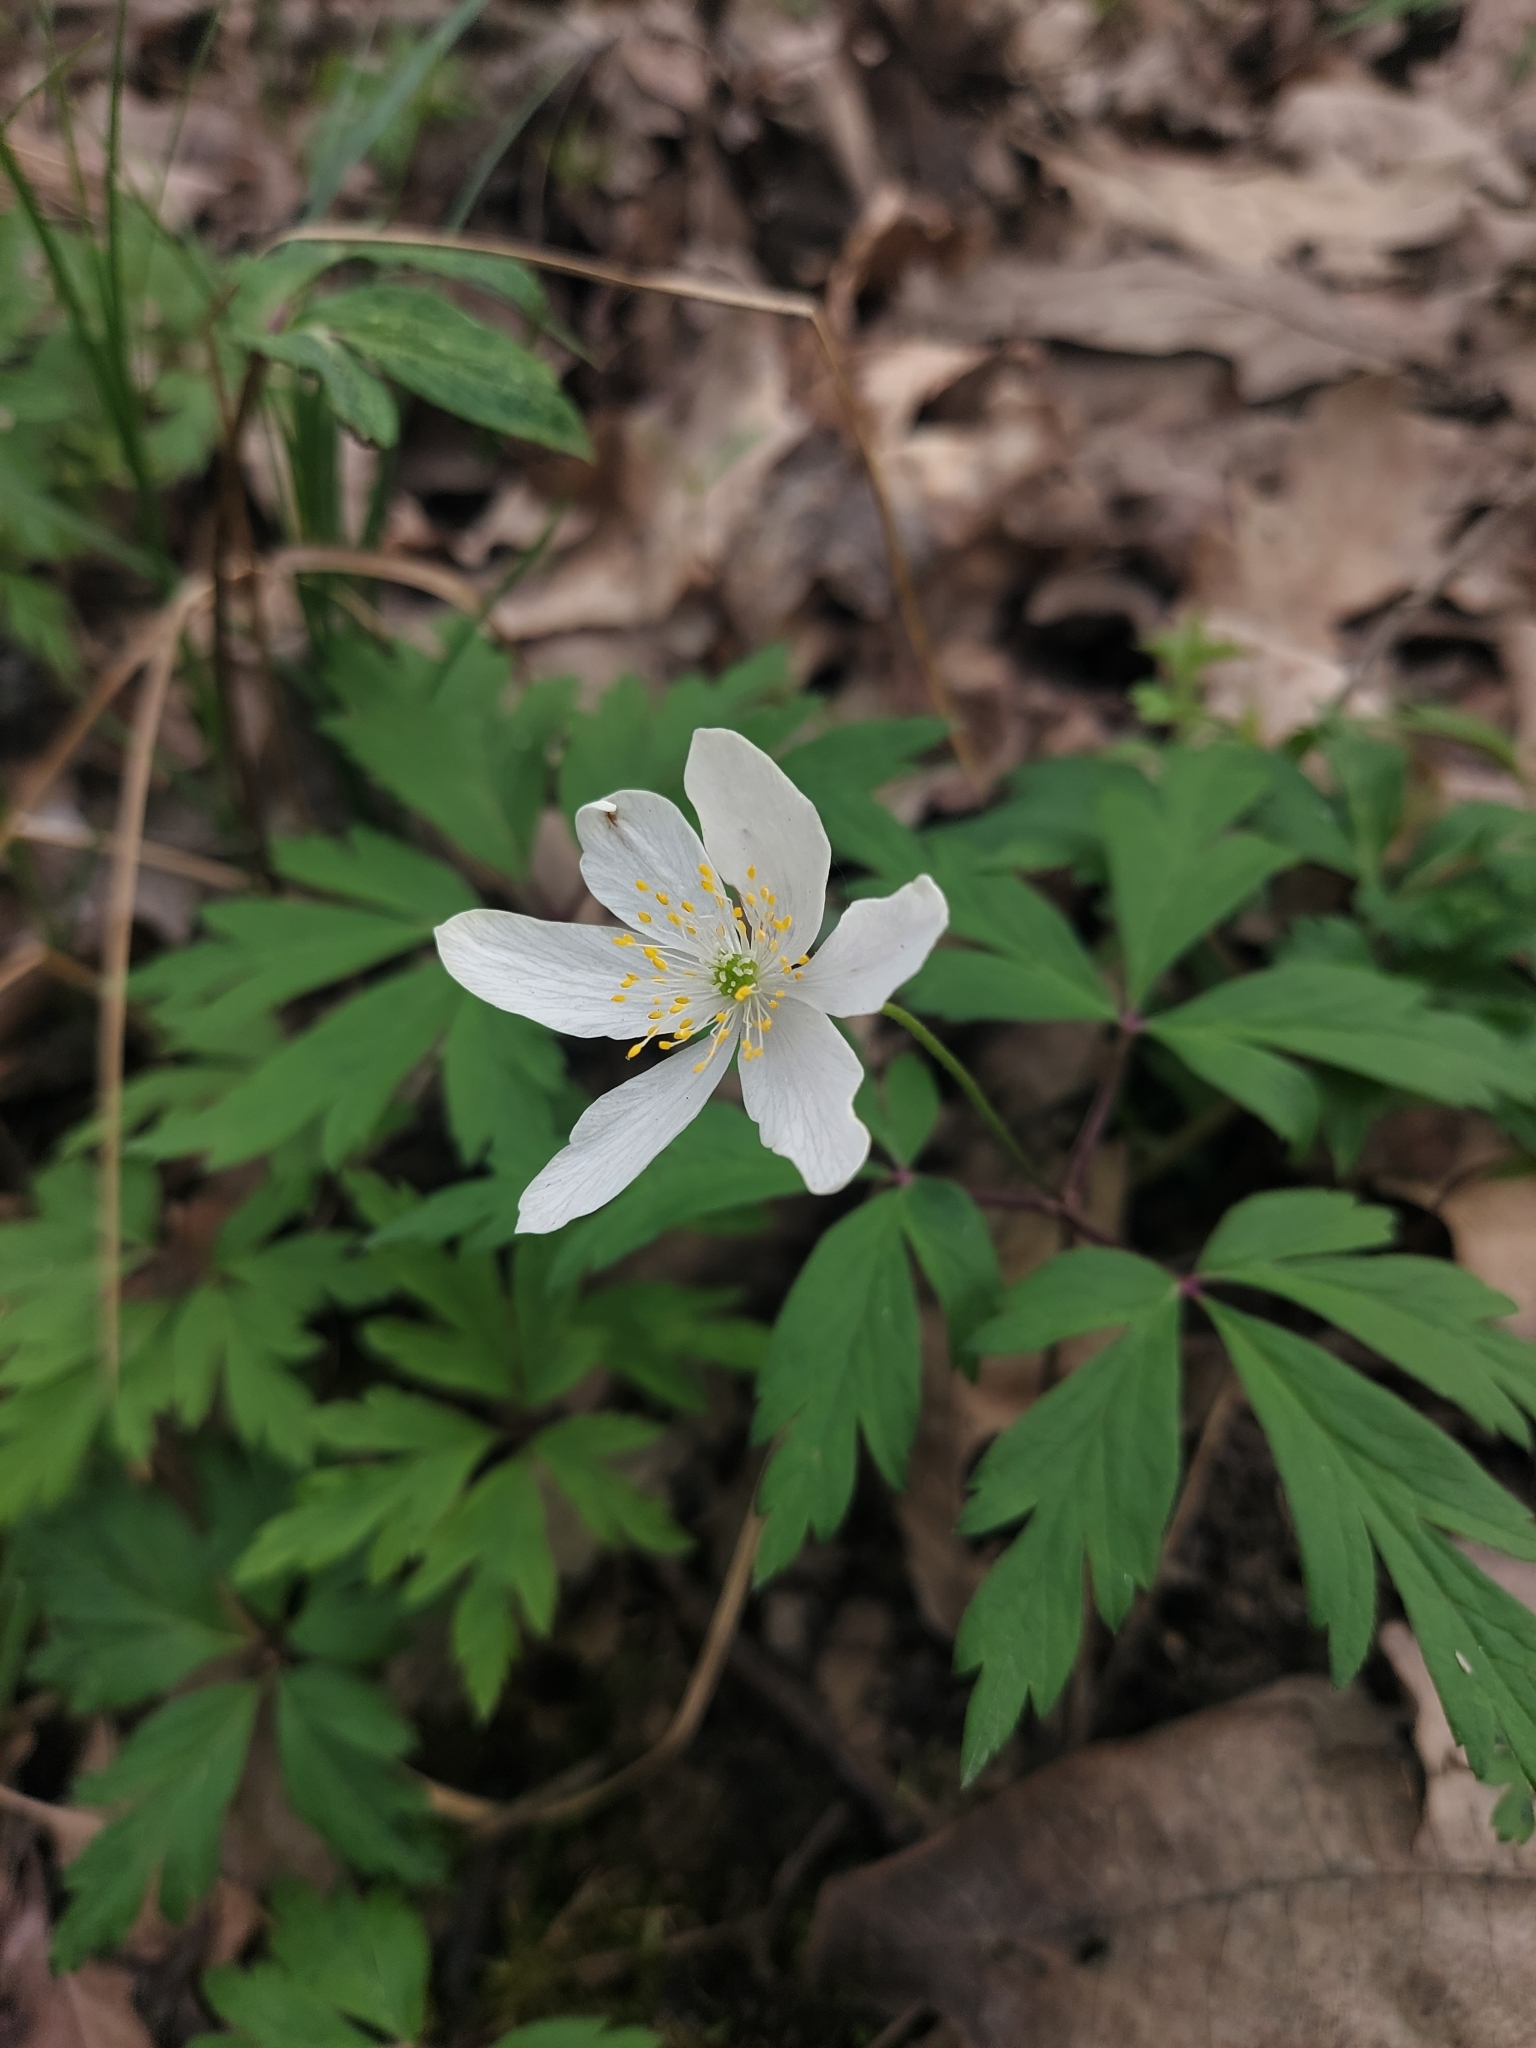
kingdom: Plantae
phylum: Tracheophyta
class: Magnoliopsida
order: Ranunculales
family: Ranunculaceae
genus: Anemone
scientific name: Anemone nemorosa
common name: Wood anemone
